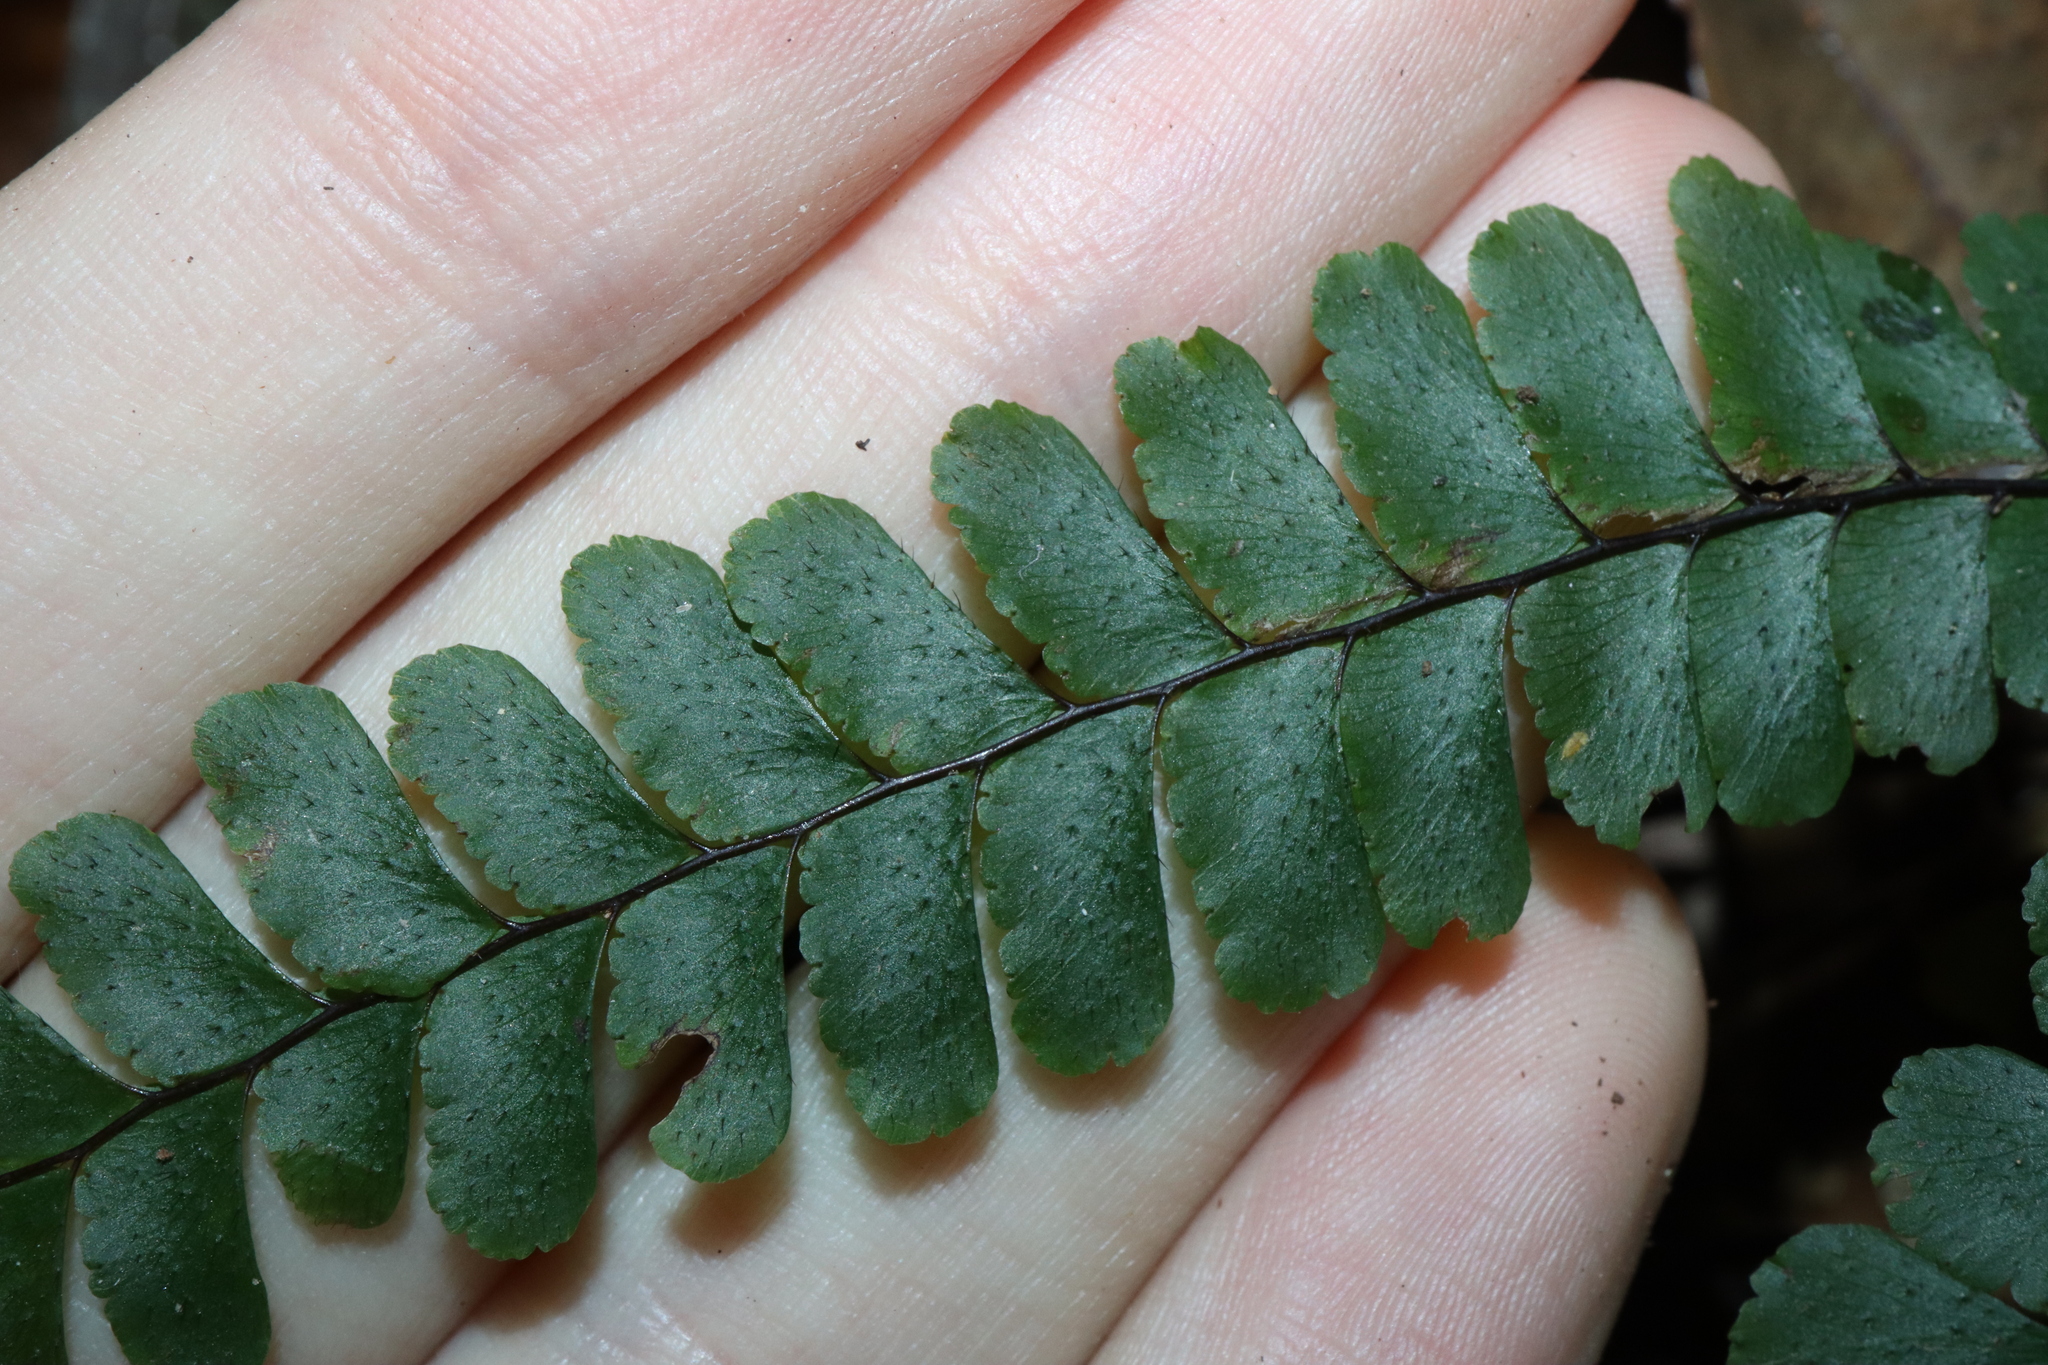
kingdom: Plantae
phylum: Tracheophyta
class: Polypodiopsida
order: Polypodiales
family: Pteridaceae
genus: Adiantum
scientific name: Adiantum diaphanum
